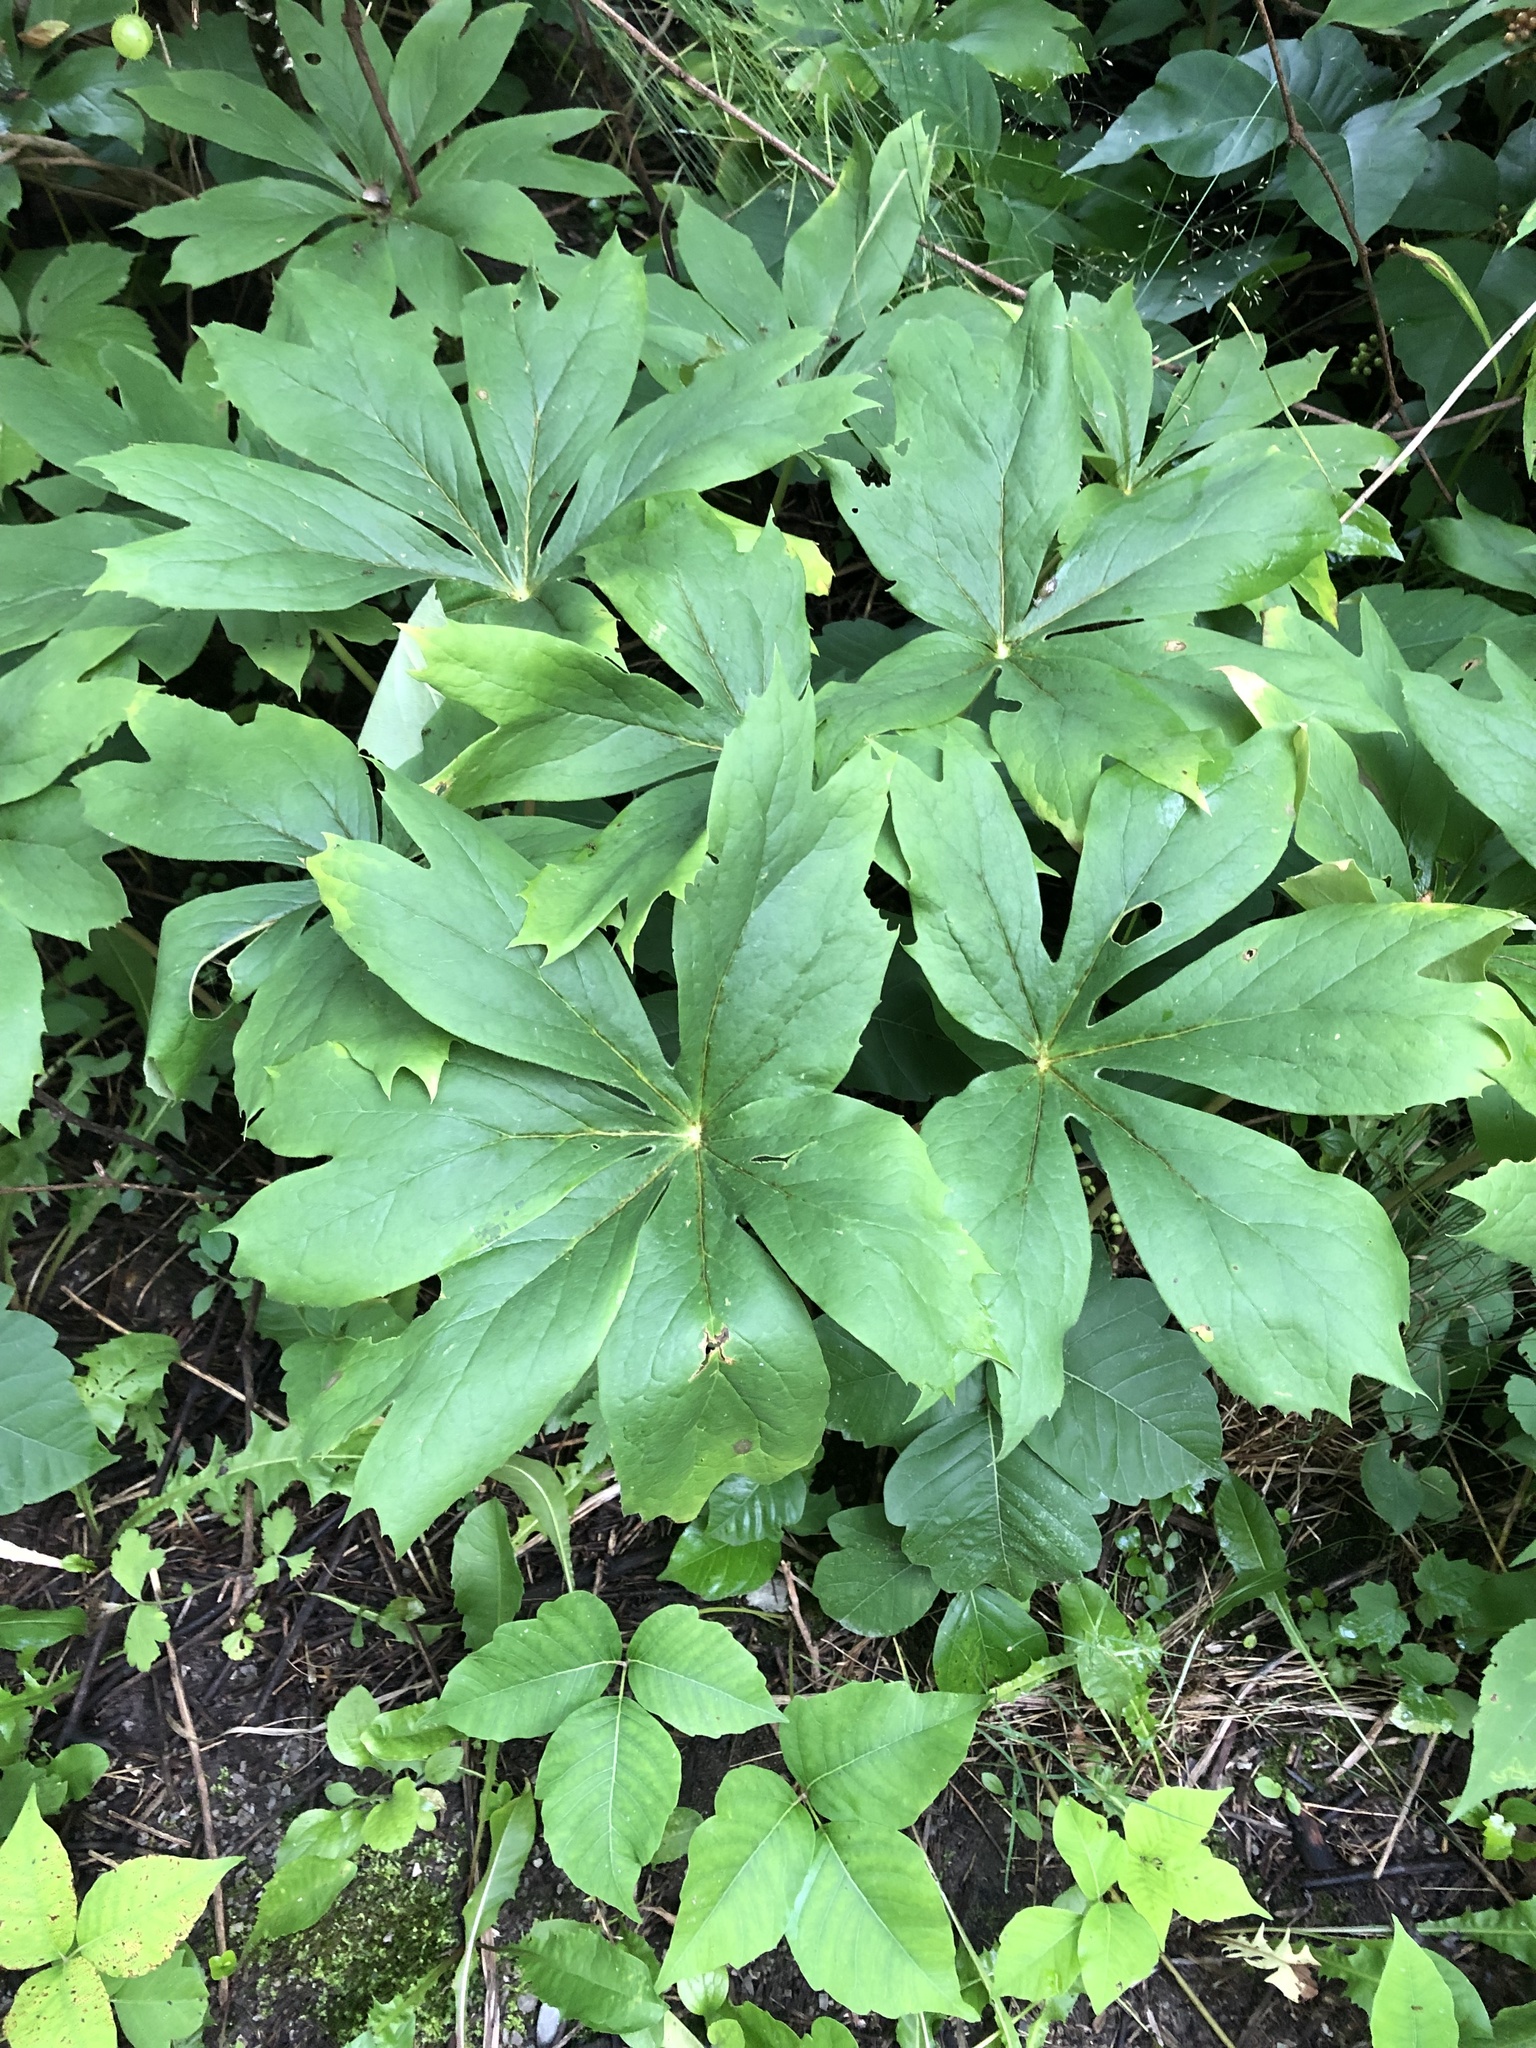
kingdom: Plantae
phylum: Tracheophyta
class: Magnoliopsida
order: Ranunculales
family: Berberidaceae
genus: Podophyllum
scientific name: Podophyllum peltatum
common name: Wild mandrake
